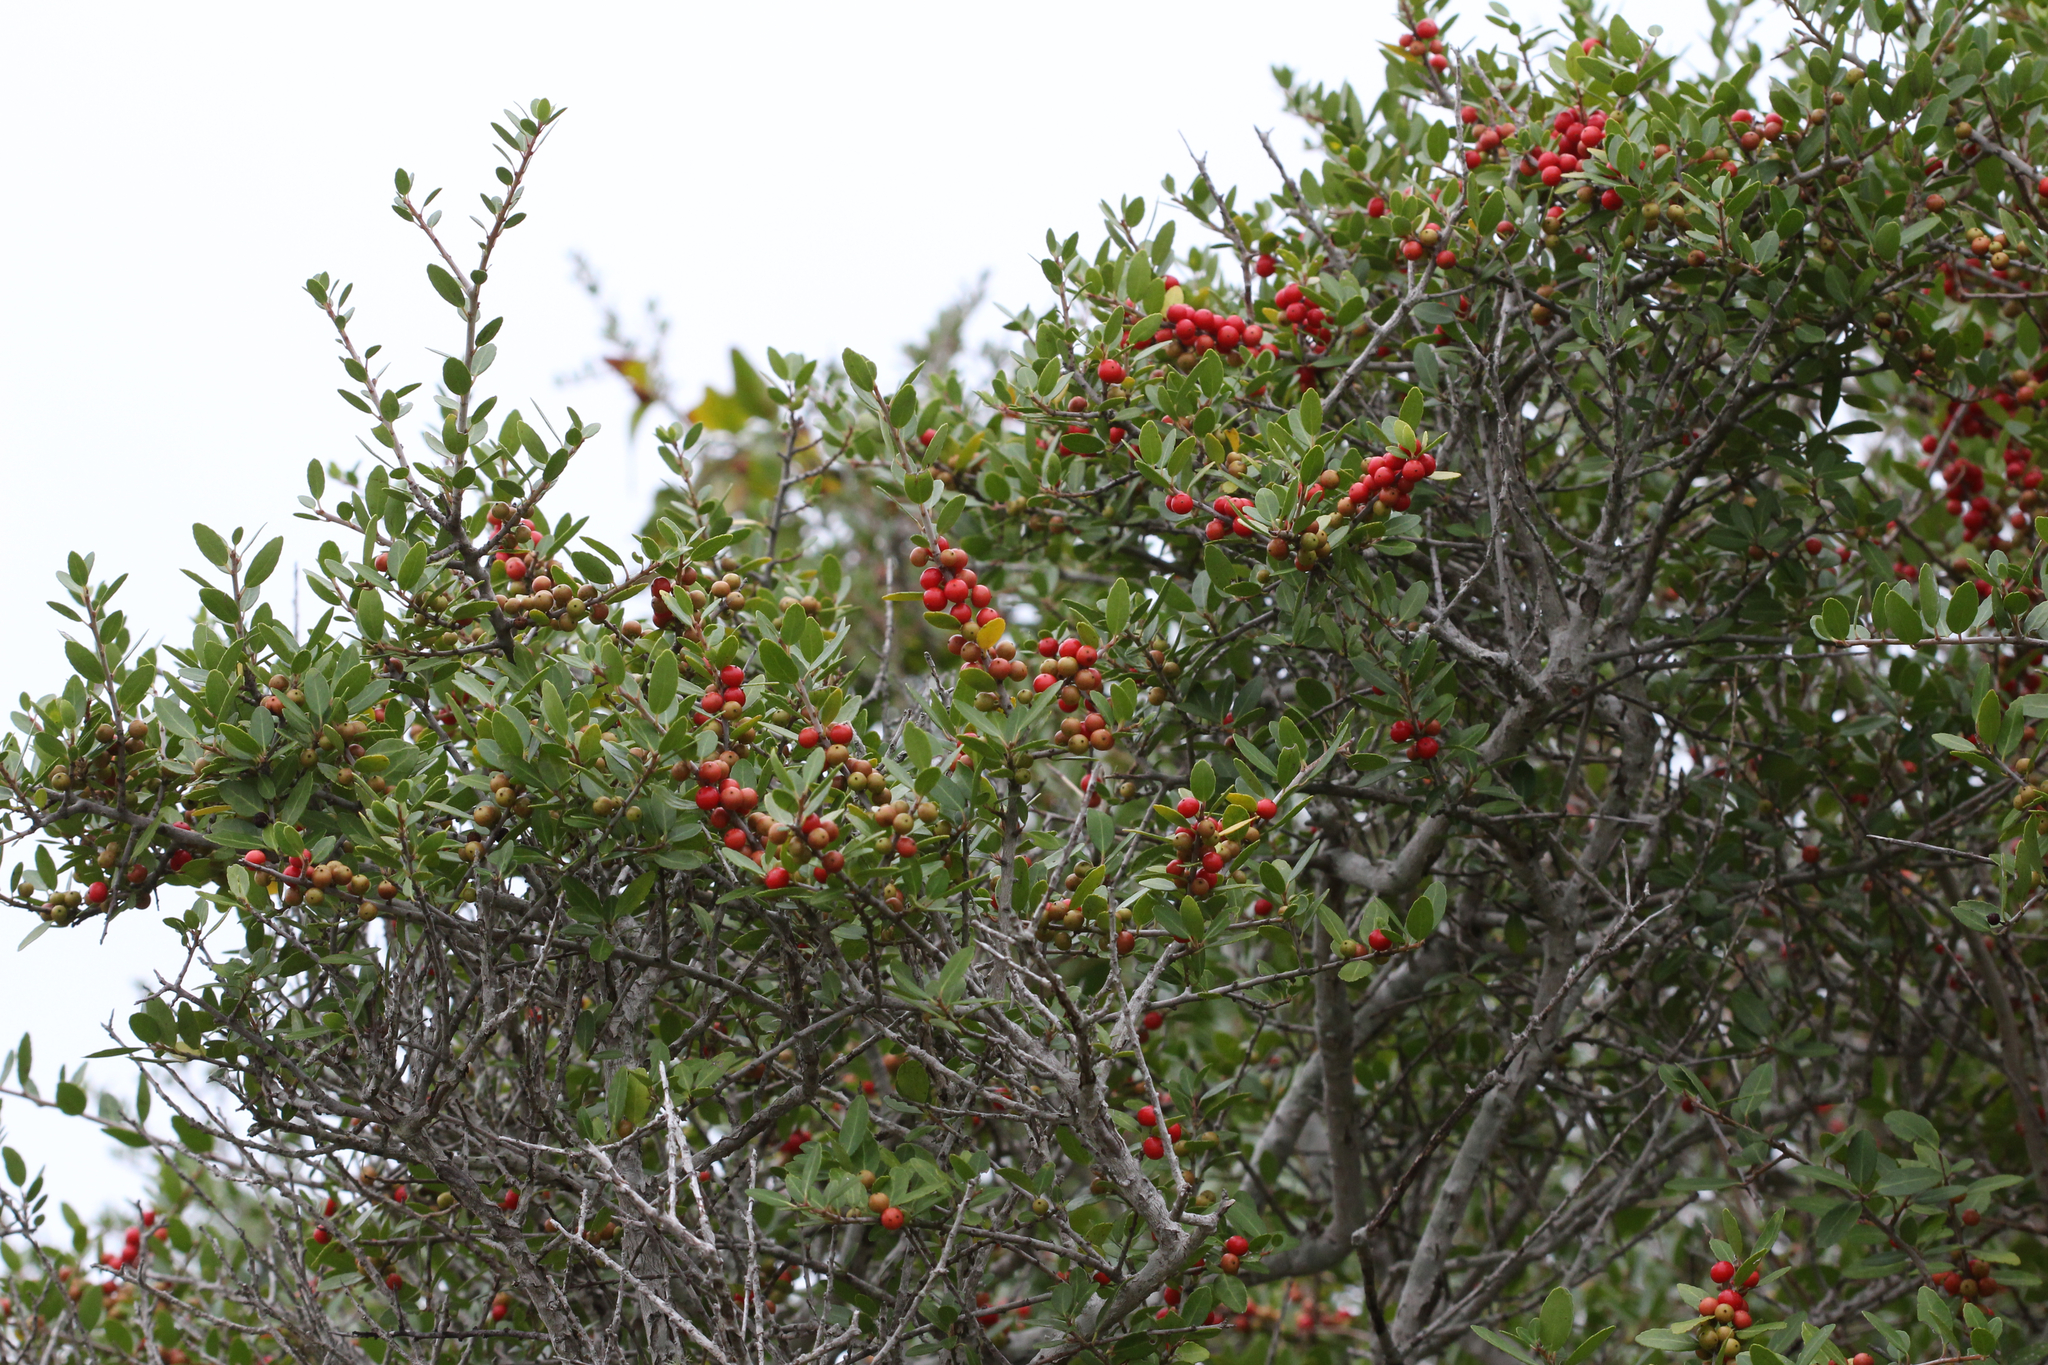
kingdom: Plantae
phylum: Tracheophyta
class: Magnoliopsida
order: Aquifoliales
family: Aquifoliaceae
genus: Ilex
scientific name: Ilex vomitoria
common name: Yaupon holly
